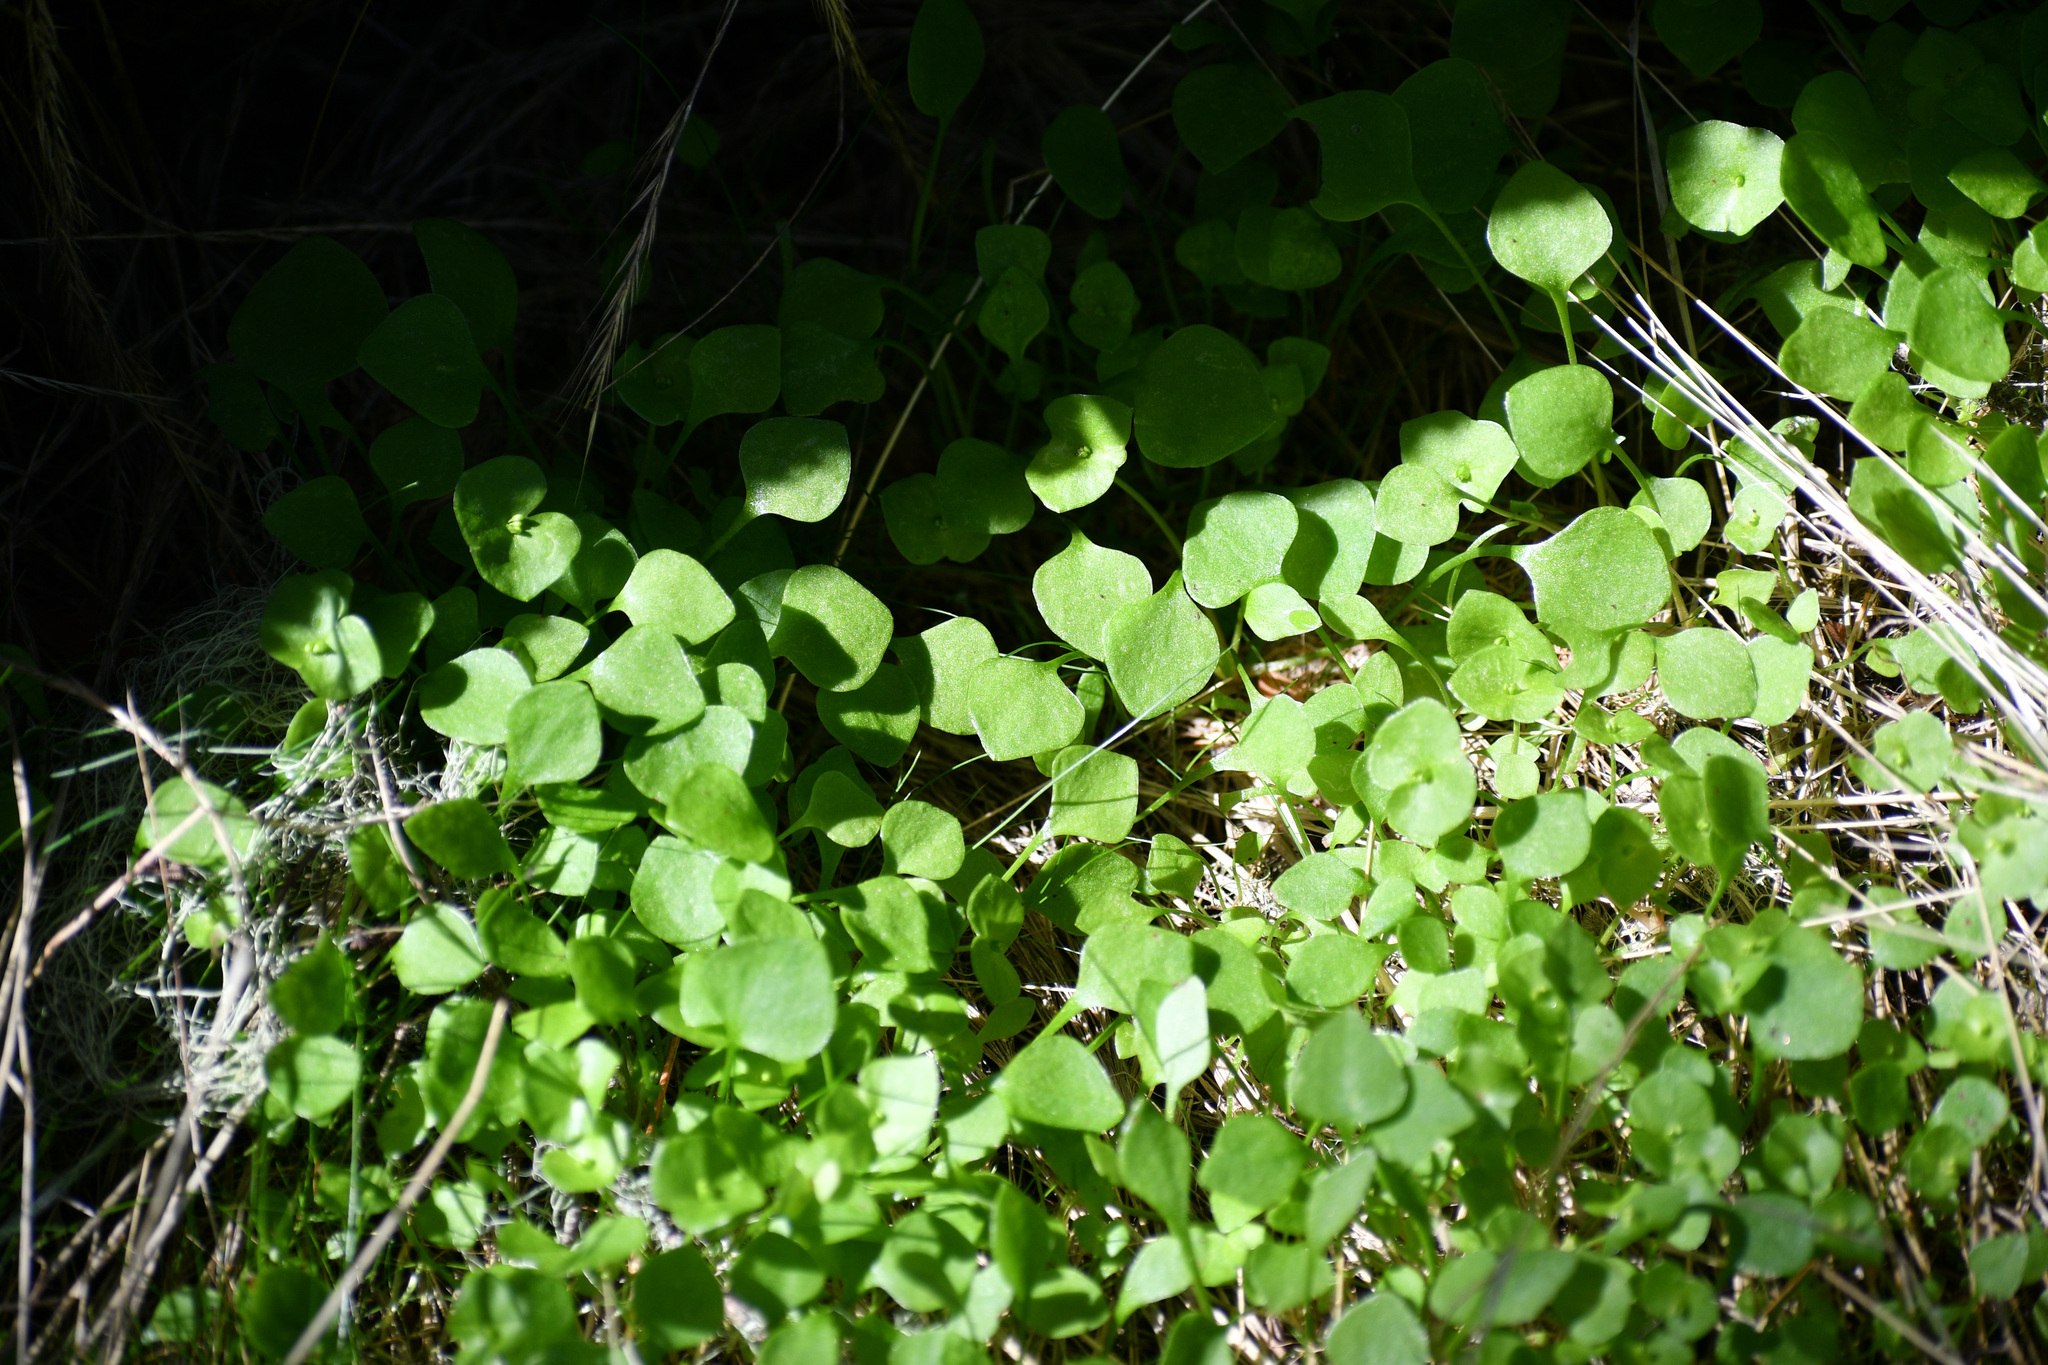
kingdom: Plantae
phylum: Tracheophyta
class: Magnoliopsida
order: Caryophyllales
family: Montiaceae
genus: Claytonia
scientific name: Claytonia perfoliata
